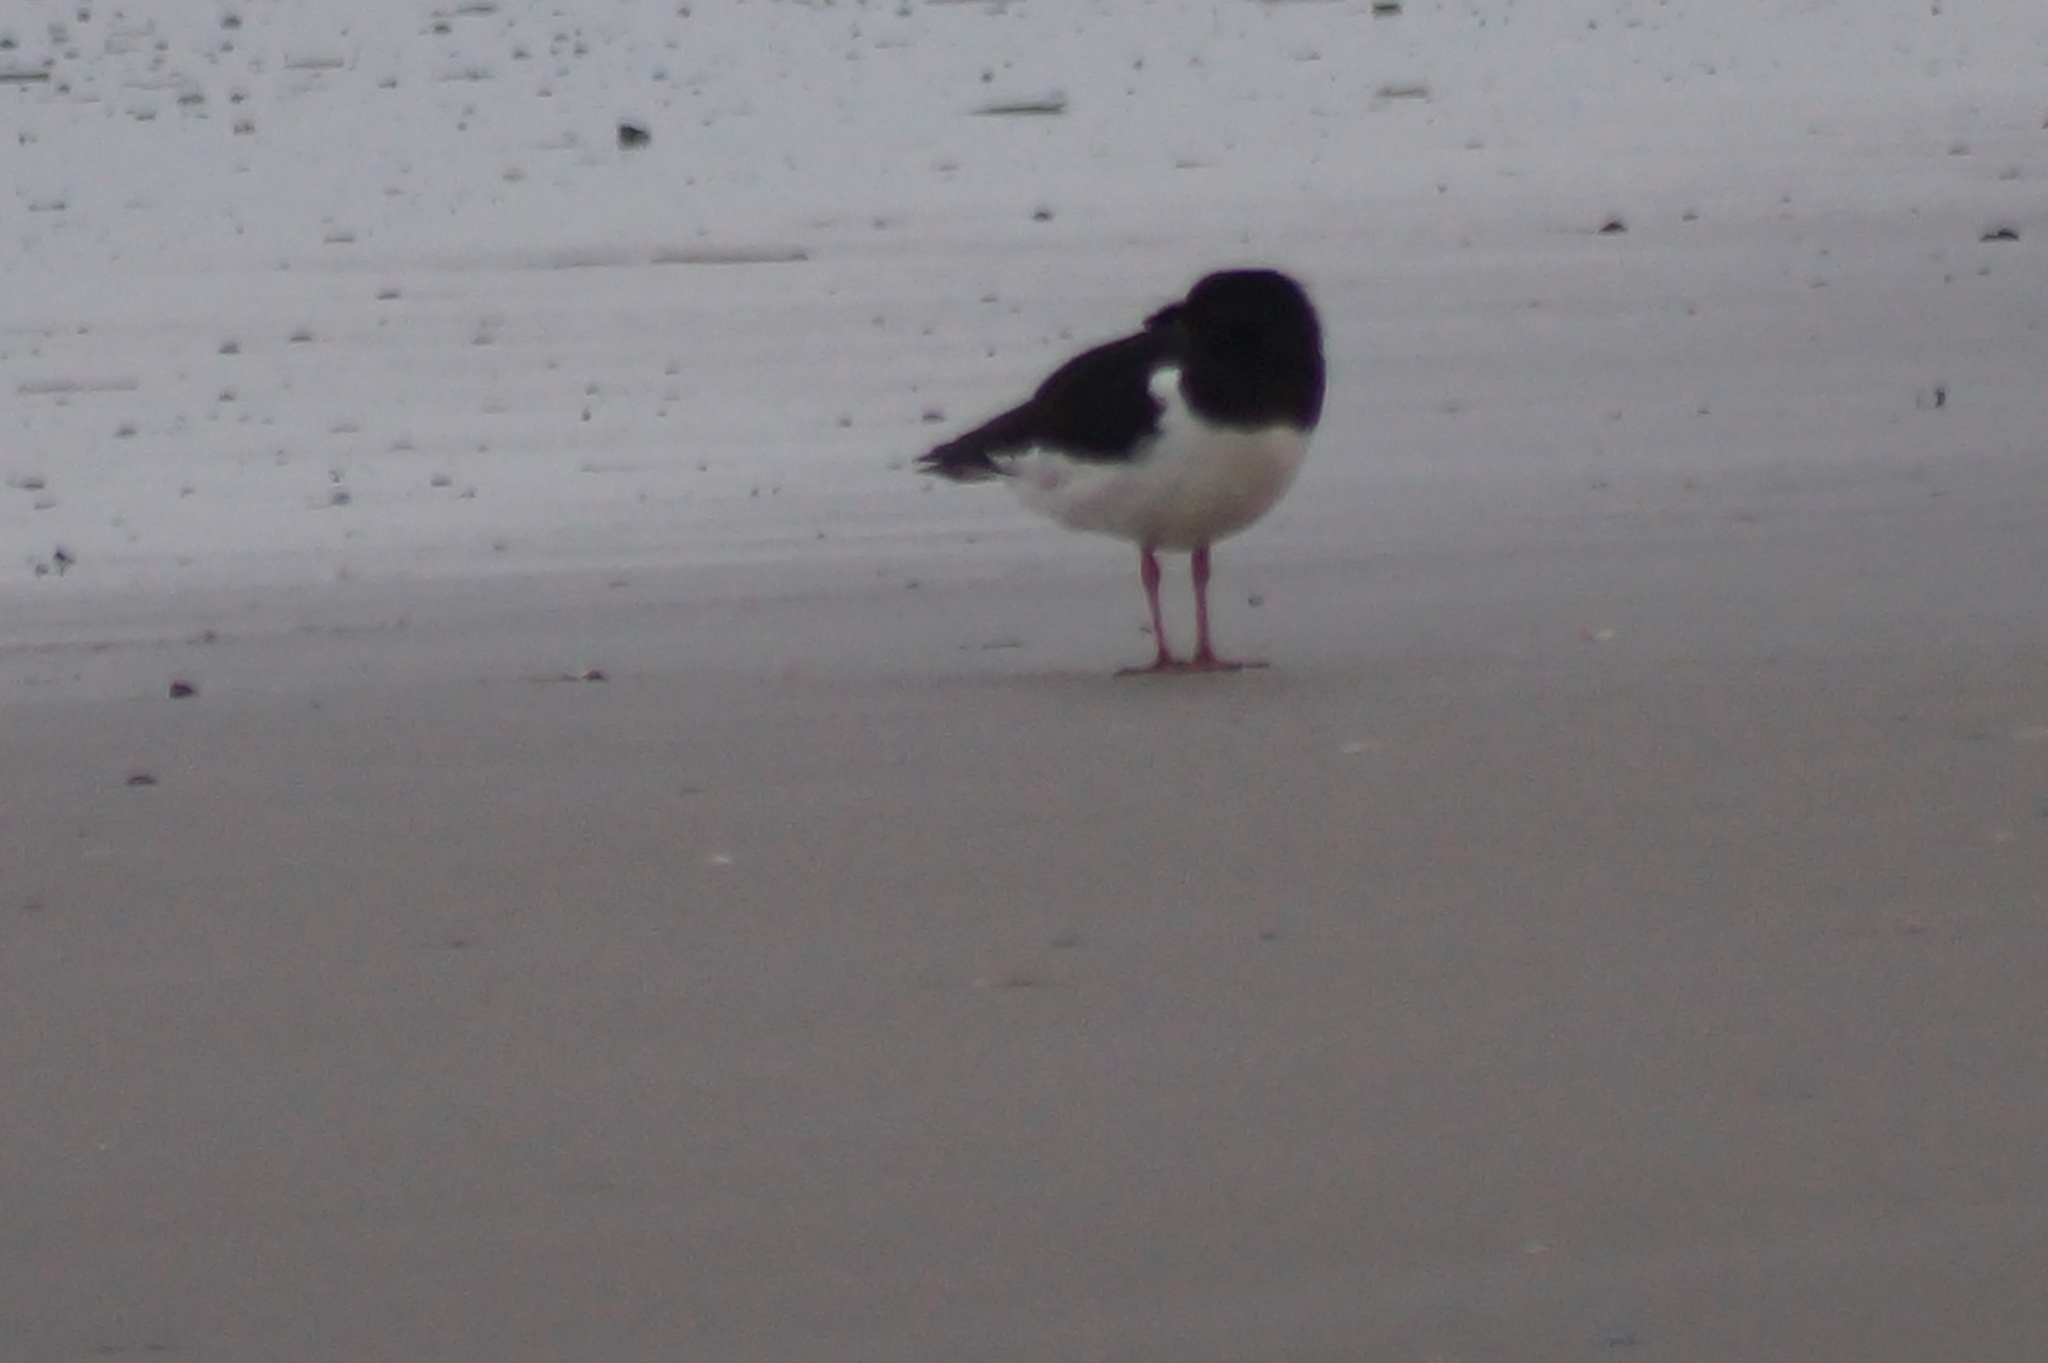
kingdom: Animalia
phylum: Chordata
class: Aves
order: Charadriiformes
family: Haematopodidae
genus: Haematopus
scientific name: Haematopus ostralegus
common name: Eurasian oystercatcher
